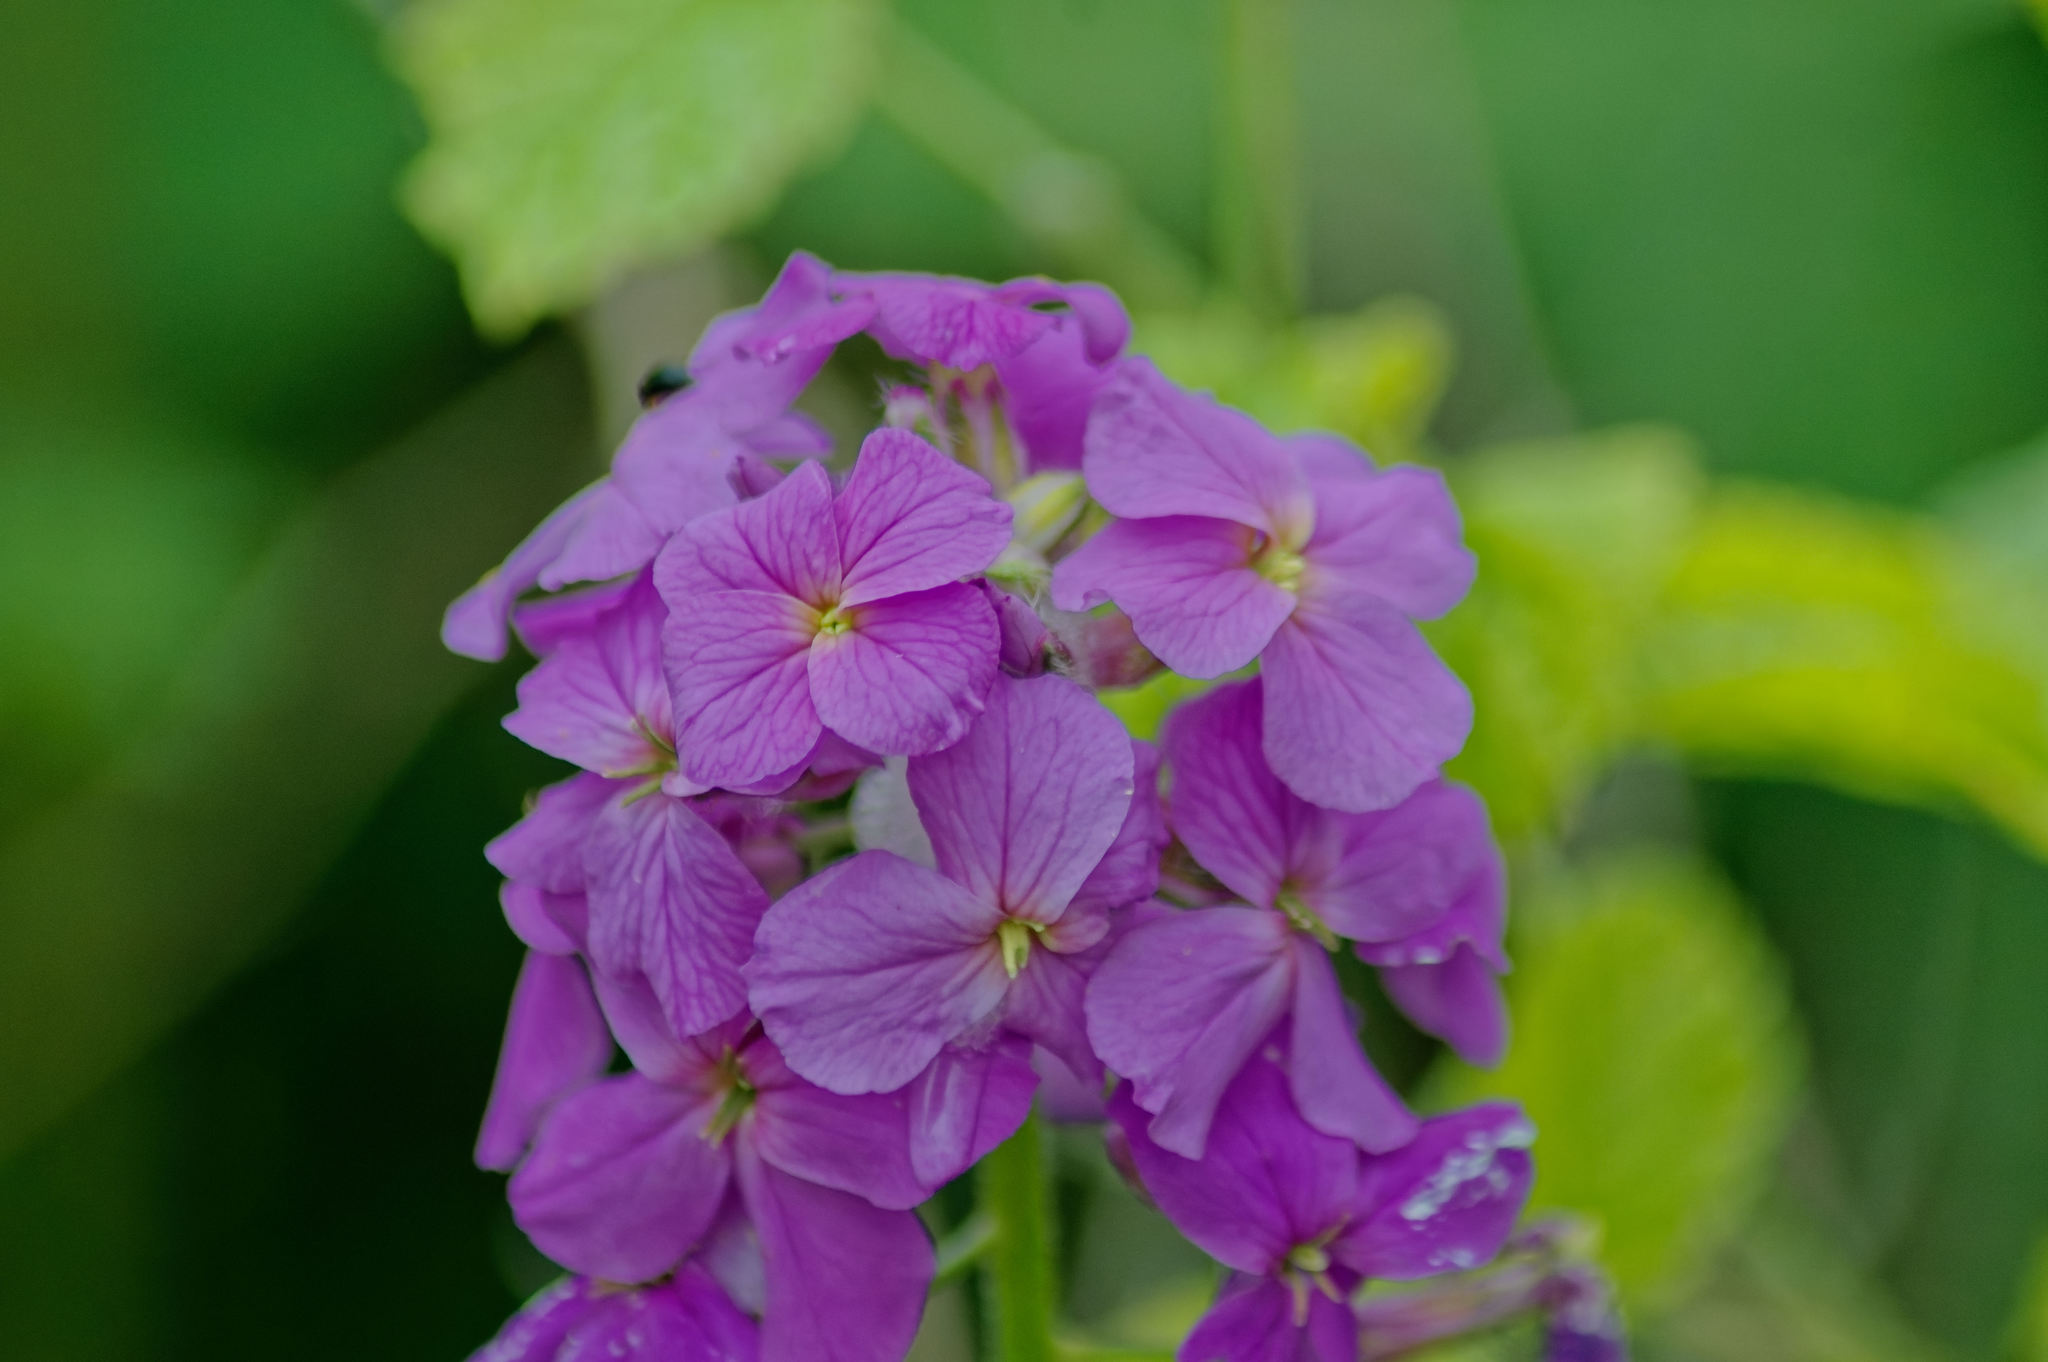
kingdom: Plantae
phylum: Tracheophyta
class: Magnoliopsida
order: Brassicales
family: Brassicaceae
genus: Hesperis
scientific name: Hesperis matronalis
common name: Dame's-violet
